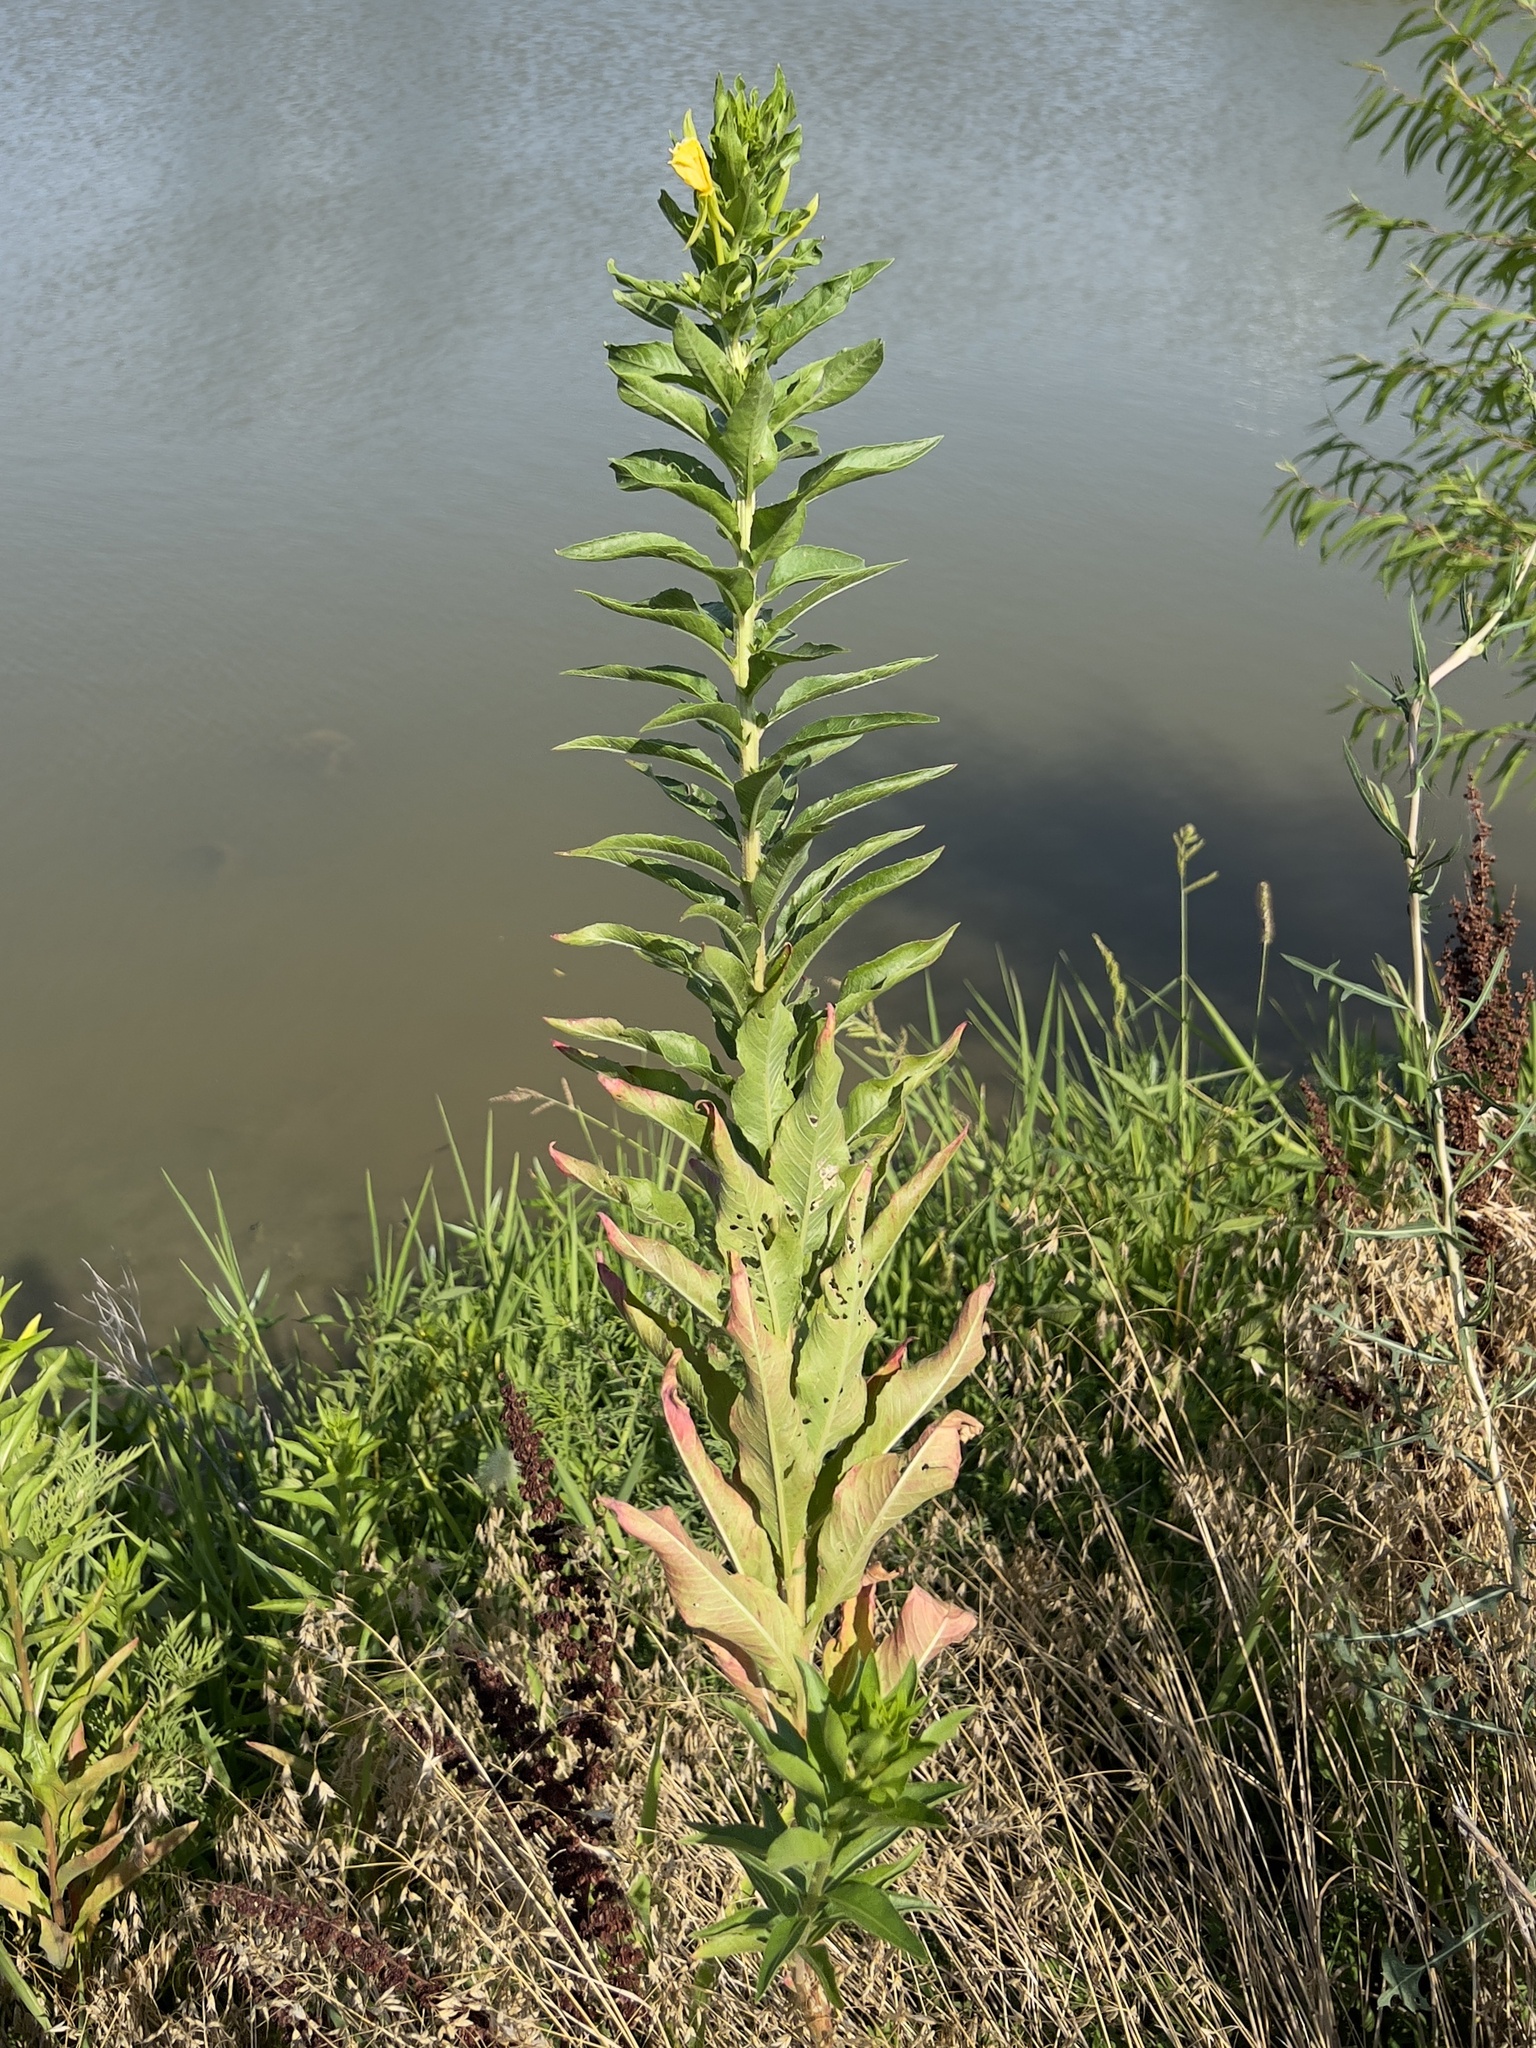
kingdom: Plantae
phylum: Tracheophyta
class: Magnoliopsida
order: Myrtales
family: Onagraceae
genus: Oenothera
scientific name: Oenothera biennis
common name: Common evening-primrose
